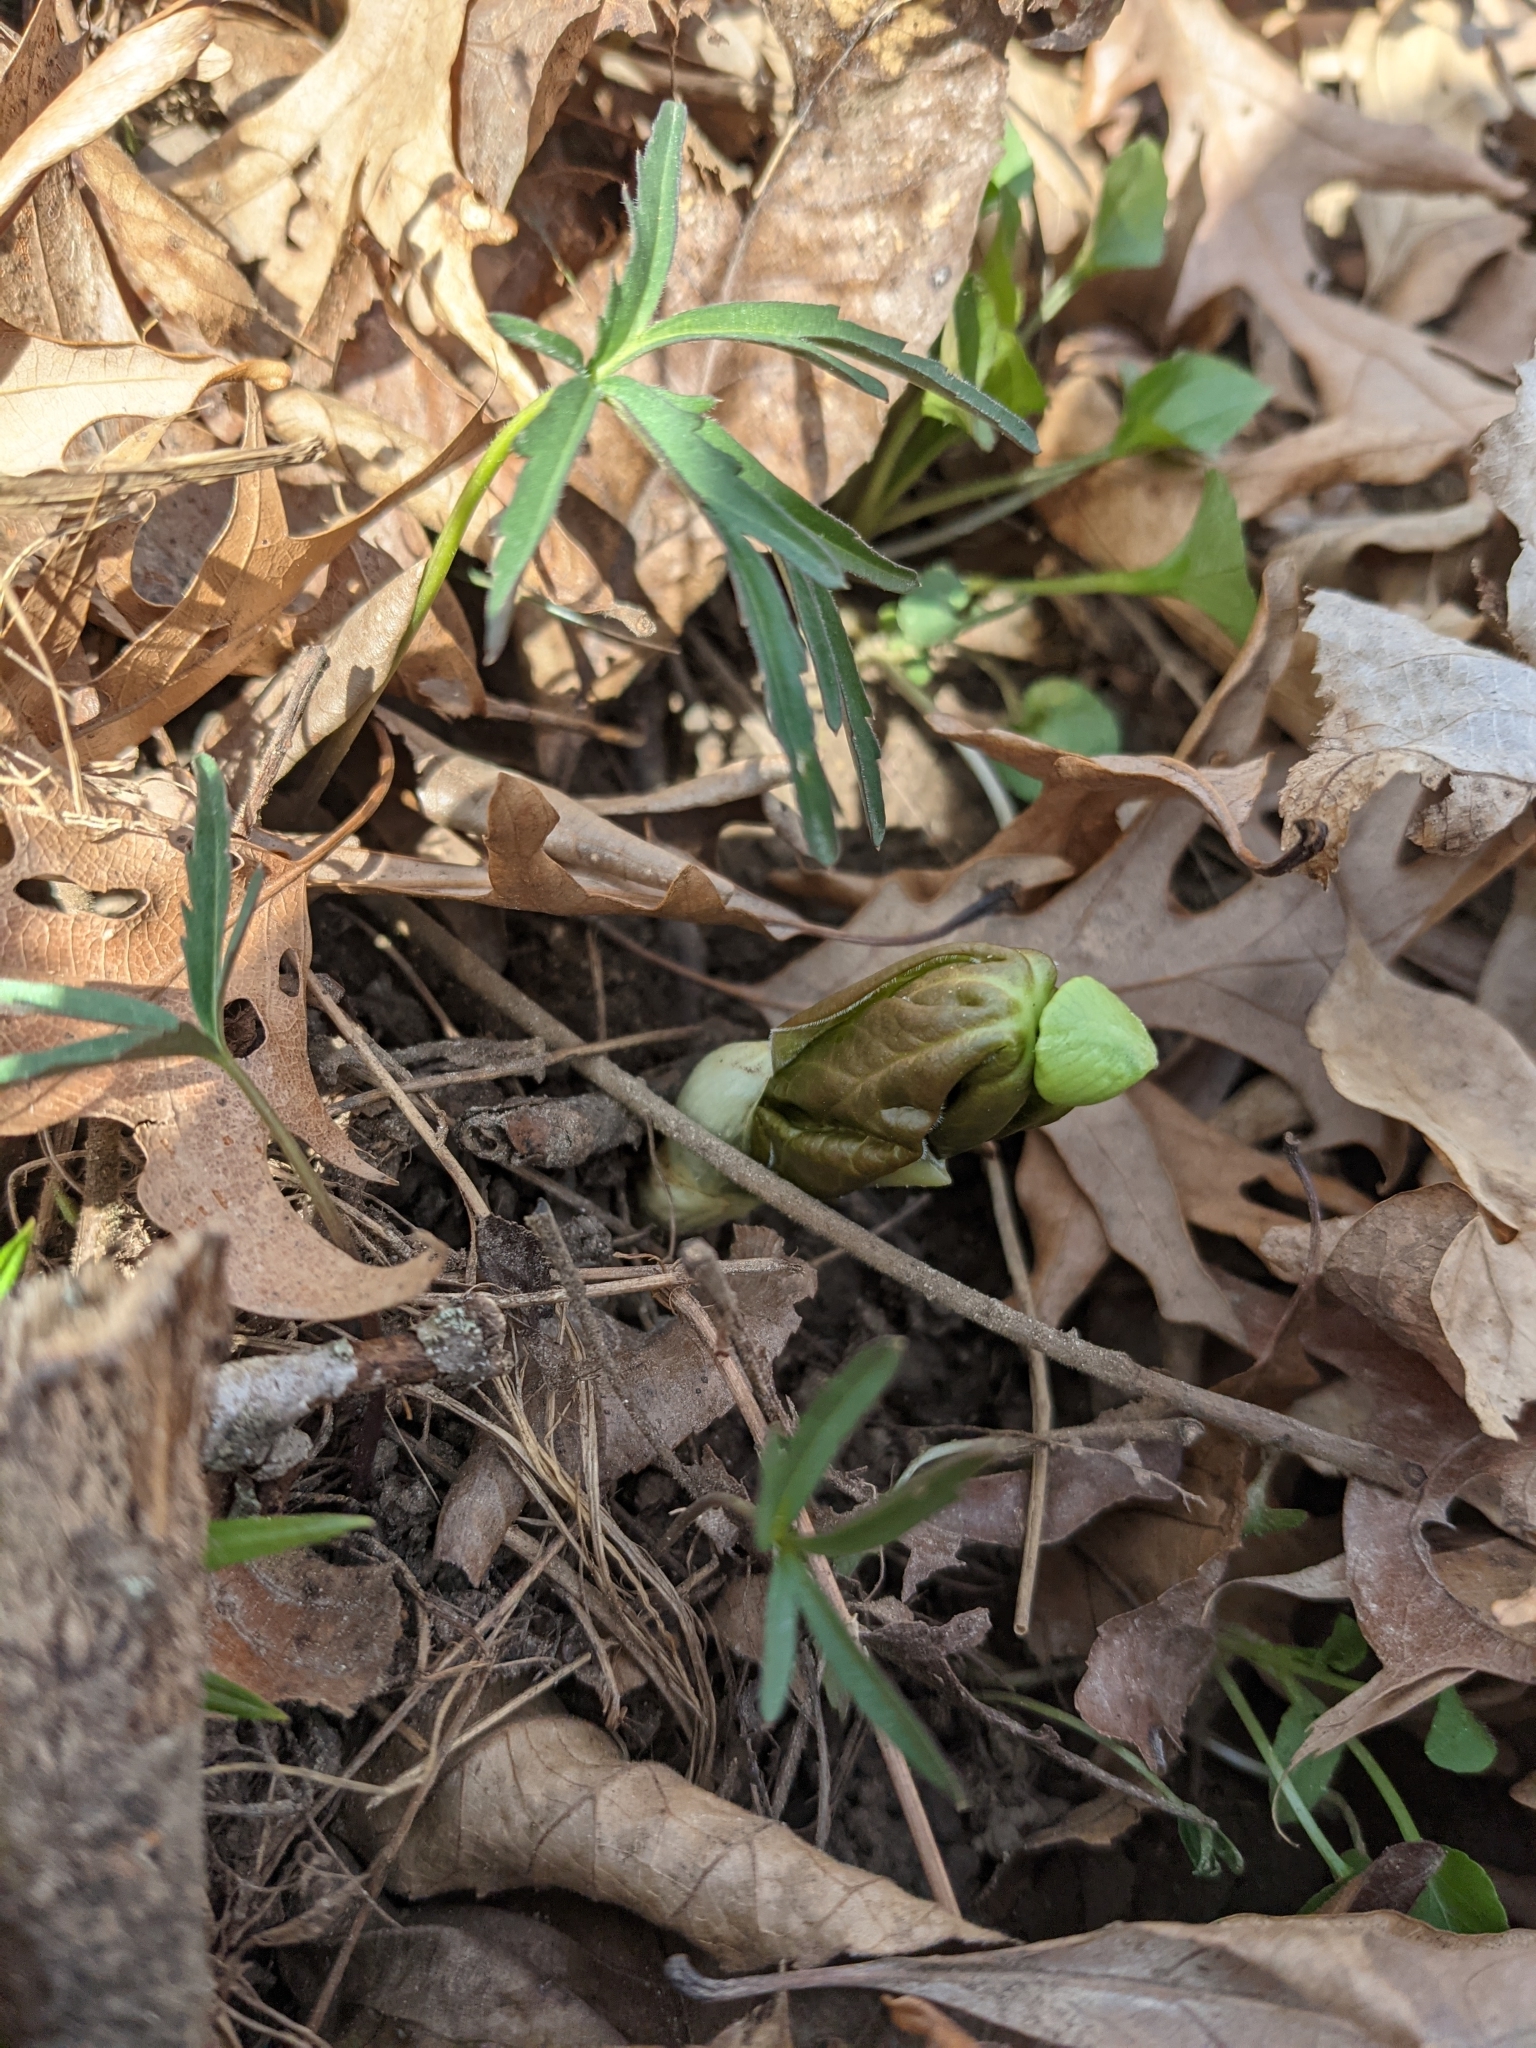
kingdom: Plantae
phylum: Tracheophyta
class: Magnoliopsida
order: Ranunculales
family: Berberidaceae
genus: Podophyllum
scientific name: Podophyllum peltatum
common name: Wild mandrake
